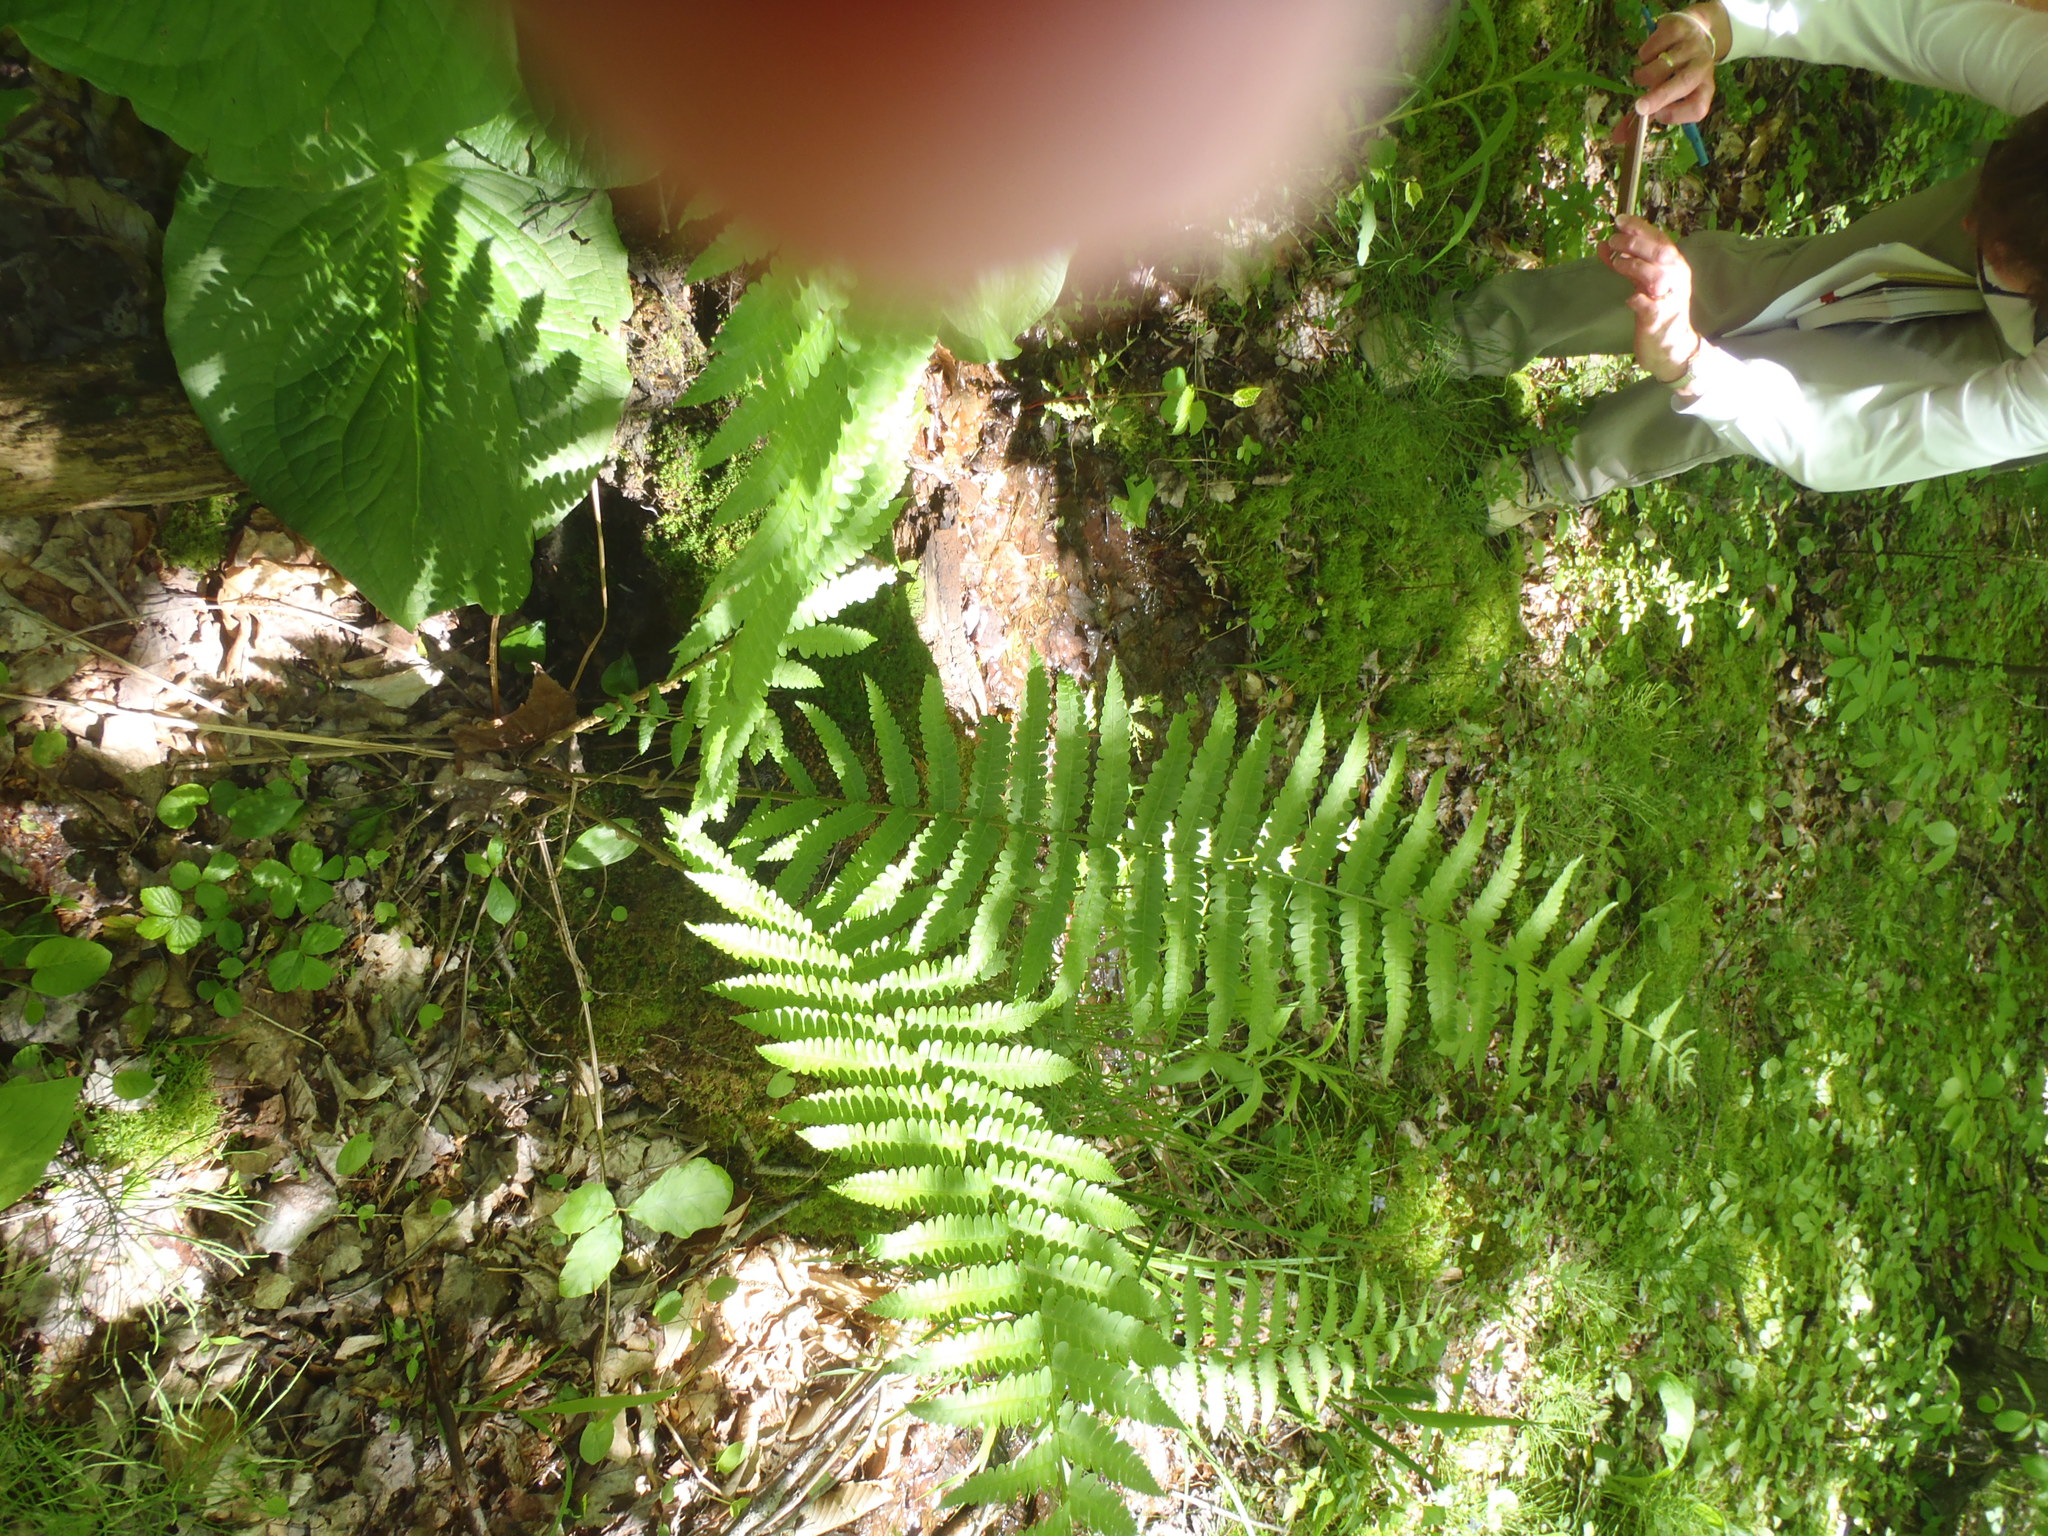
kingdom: Plantae
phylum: Tracheophyta
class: Polypodiopsida
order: Osmundales
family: Osmundaceae
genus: Osmundastrum
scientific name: Osmundastrum cinnamomeum
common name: Cinnamon fern
